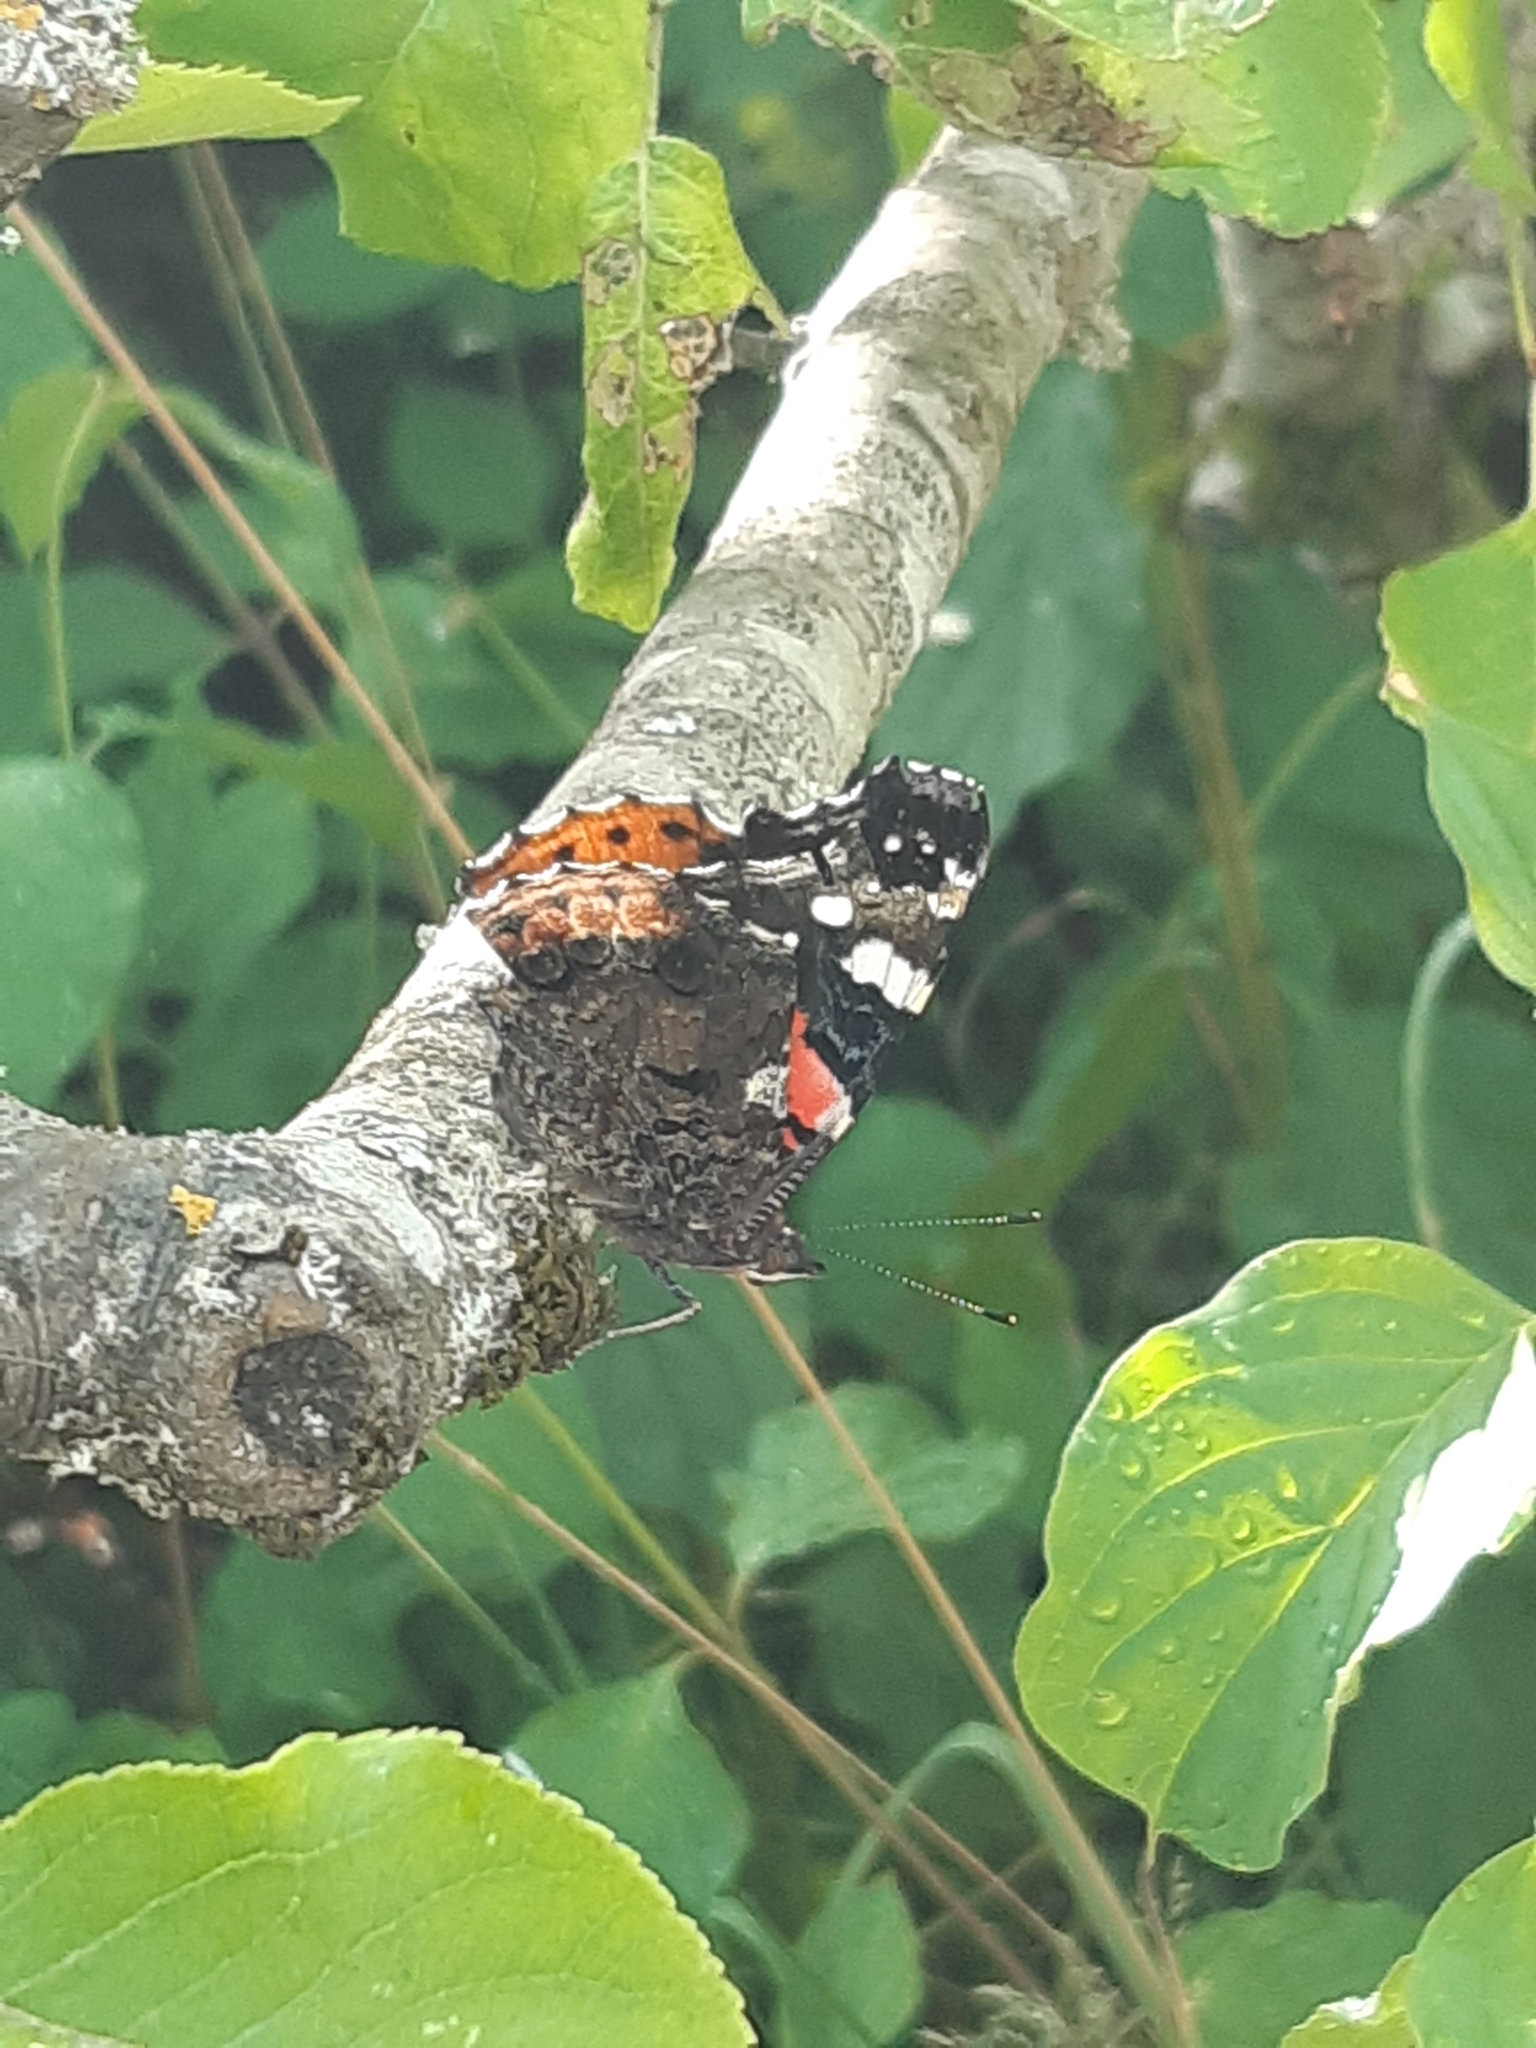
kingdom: Animalia
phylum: Arthropoda
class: Insecta
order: Lepidoptera
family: Nymphalidae
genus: Vanessa
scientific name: Vanessa atalanta
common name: Red admiral
